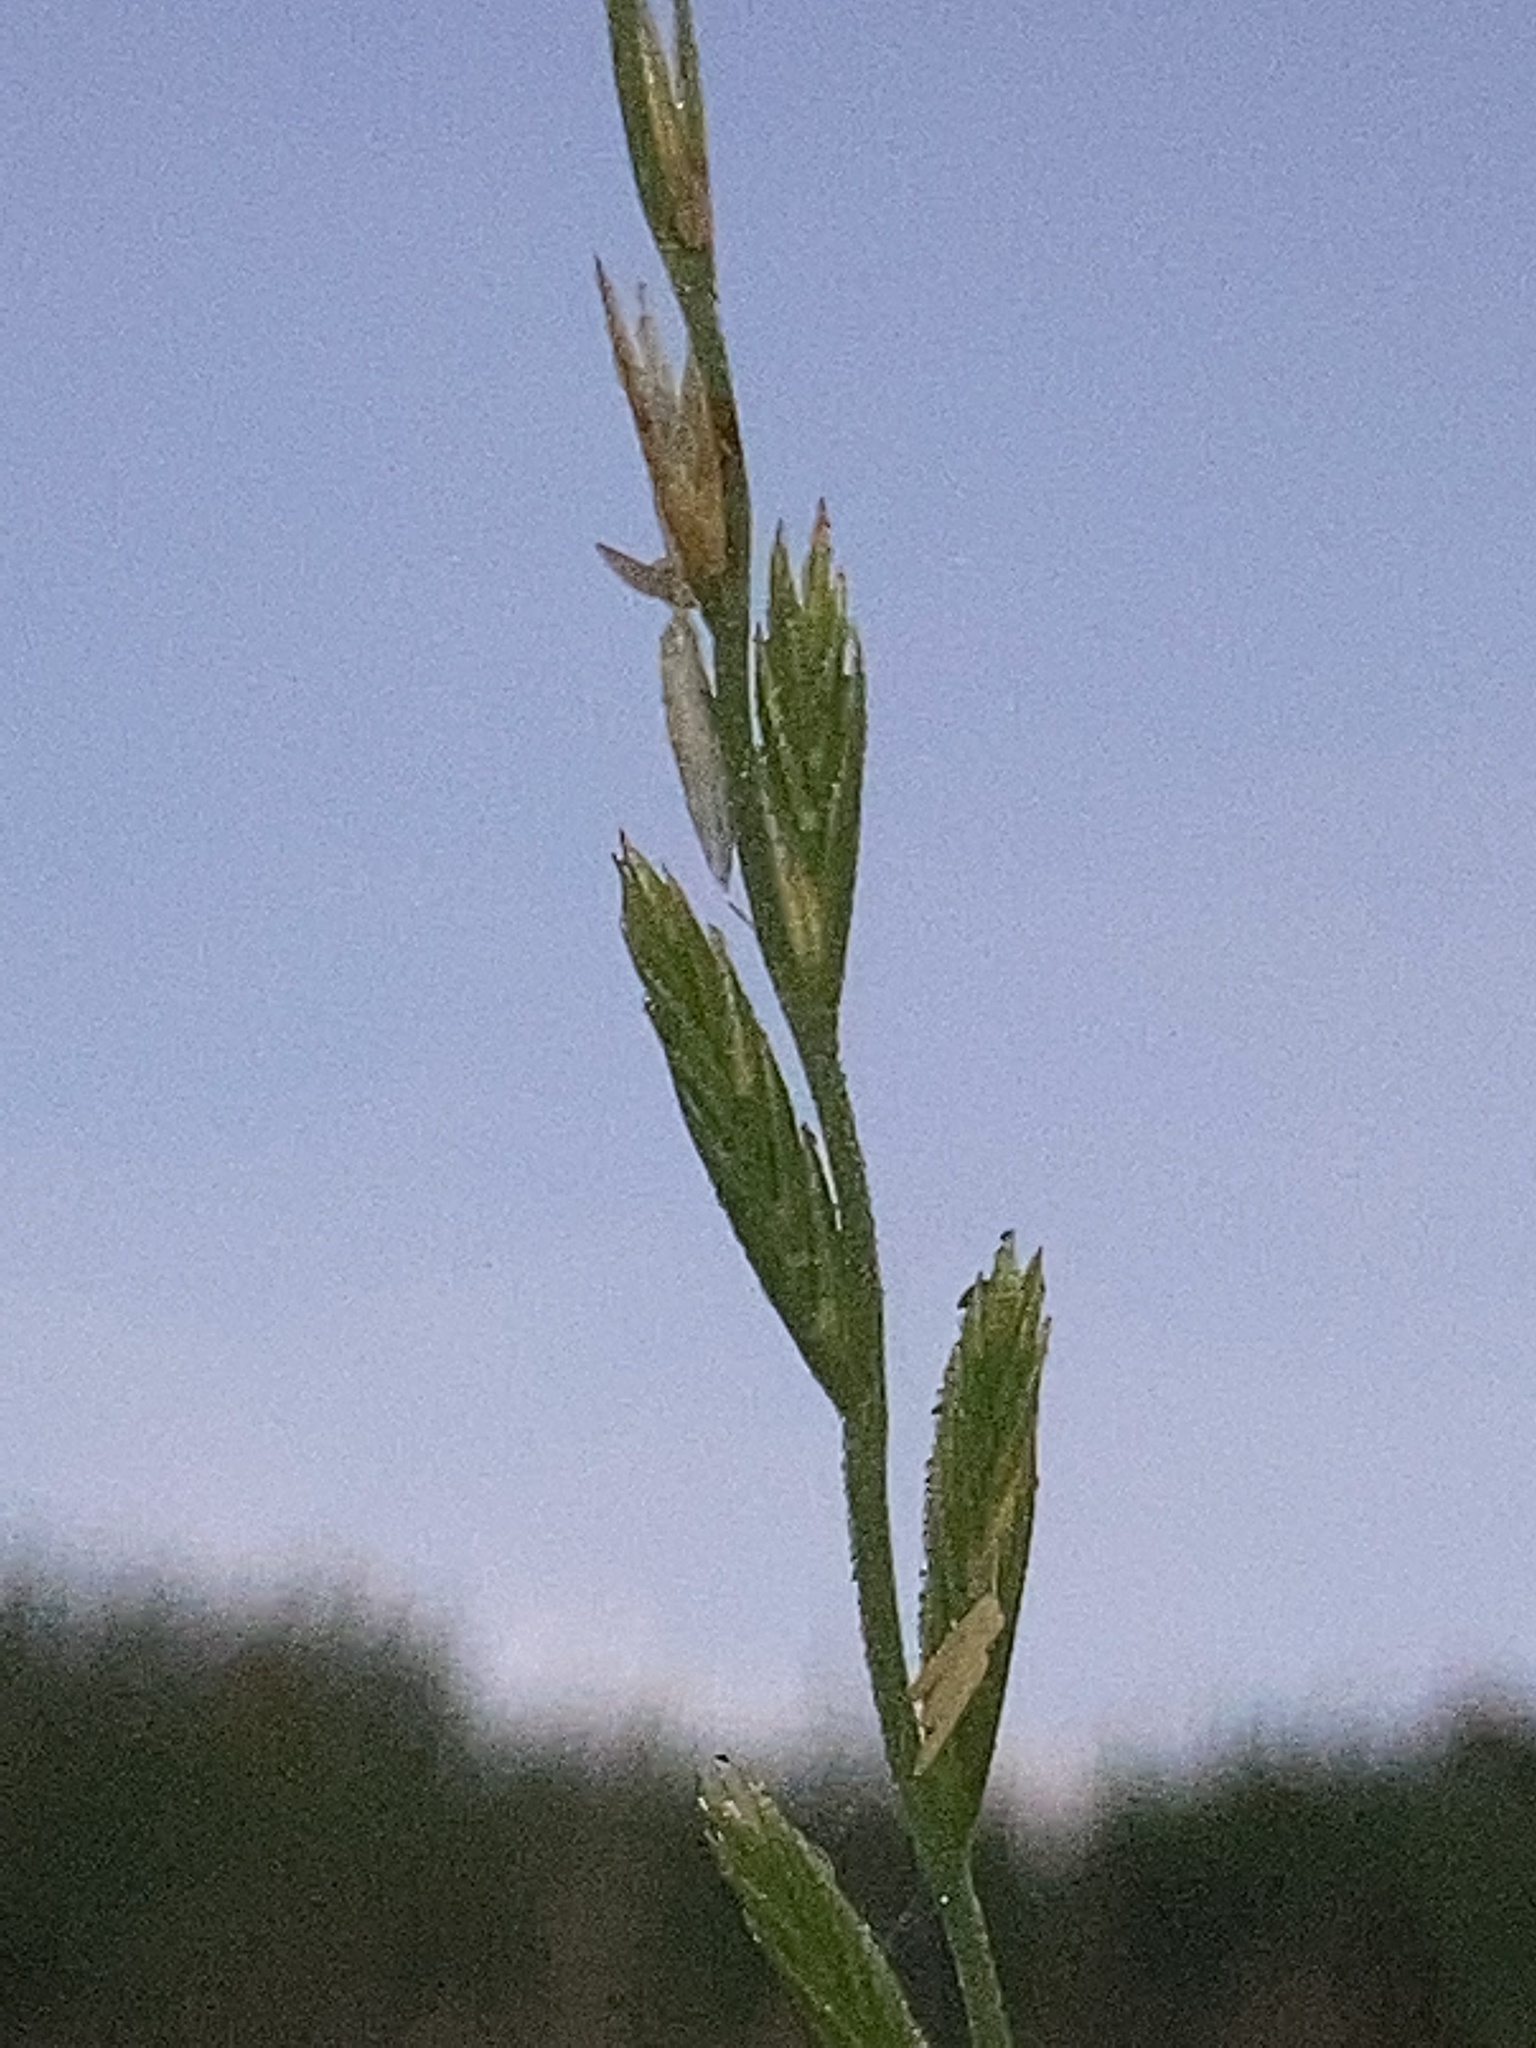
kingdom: Plantae
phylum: Tracheophyta
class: Liliopsida
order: Poales
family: Poaceae
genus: Lolium
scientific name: Lolium perenne
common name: Perennial ryegrass
